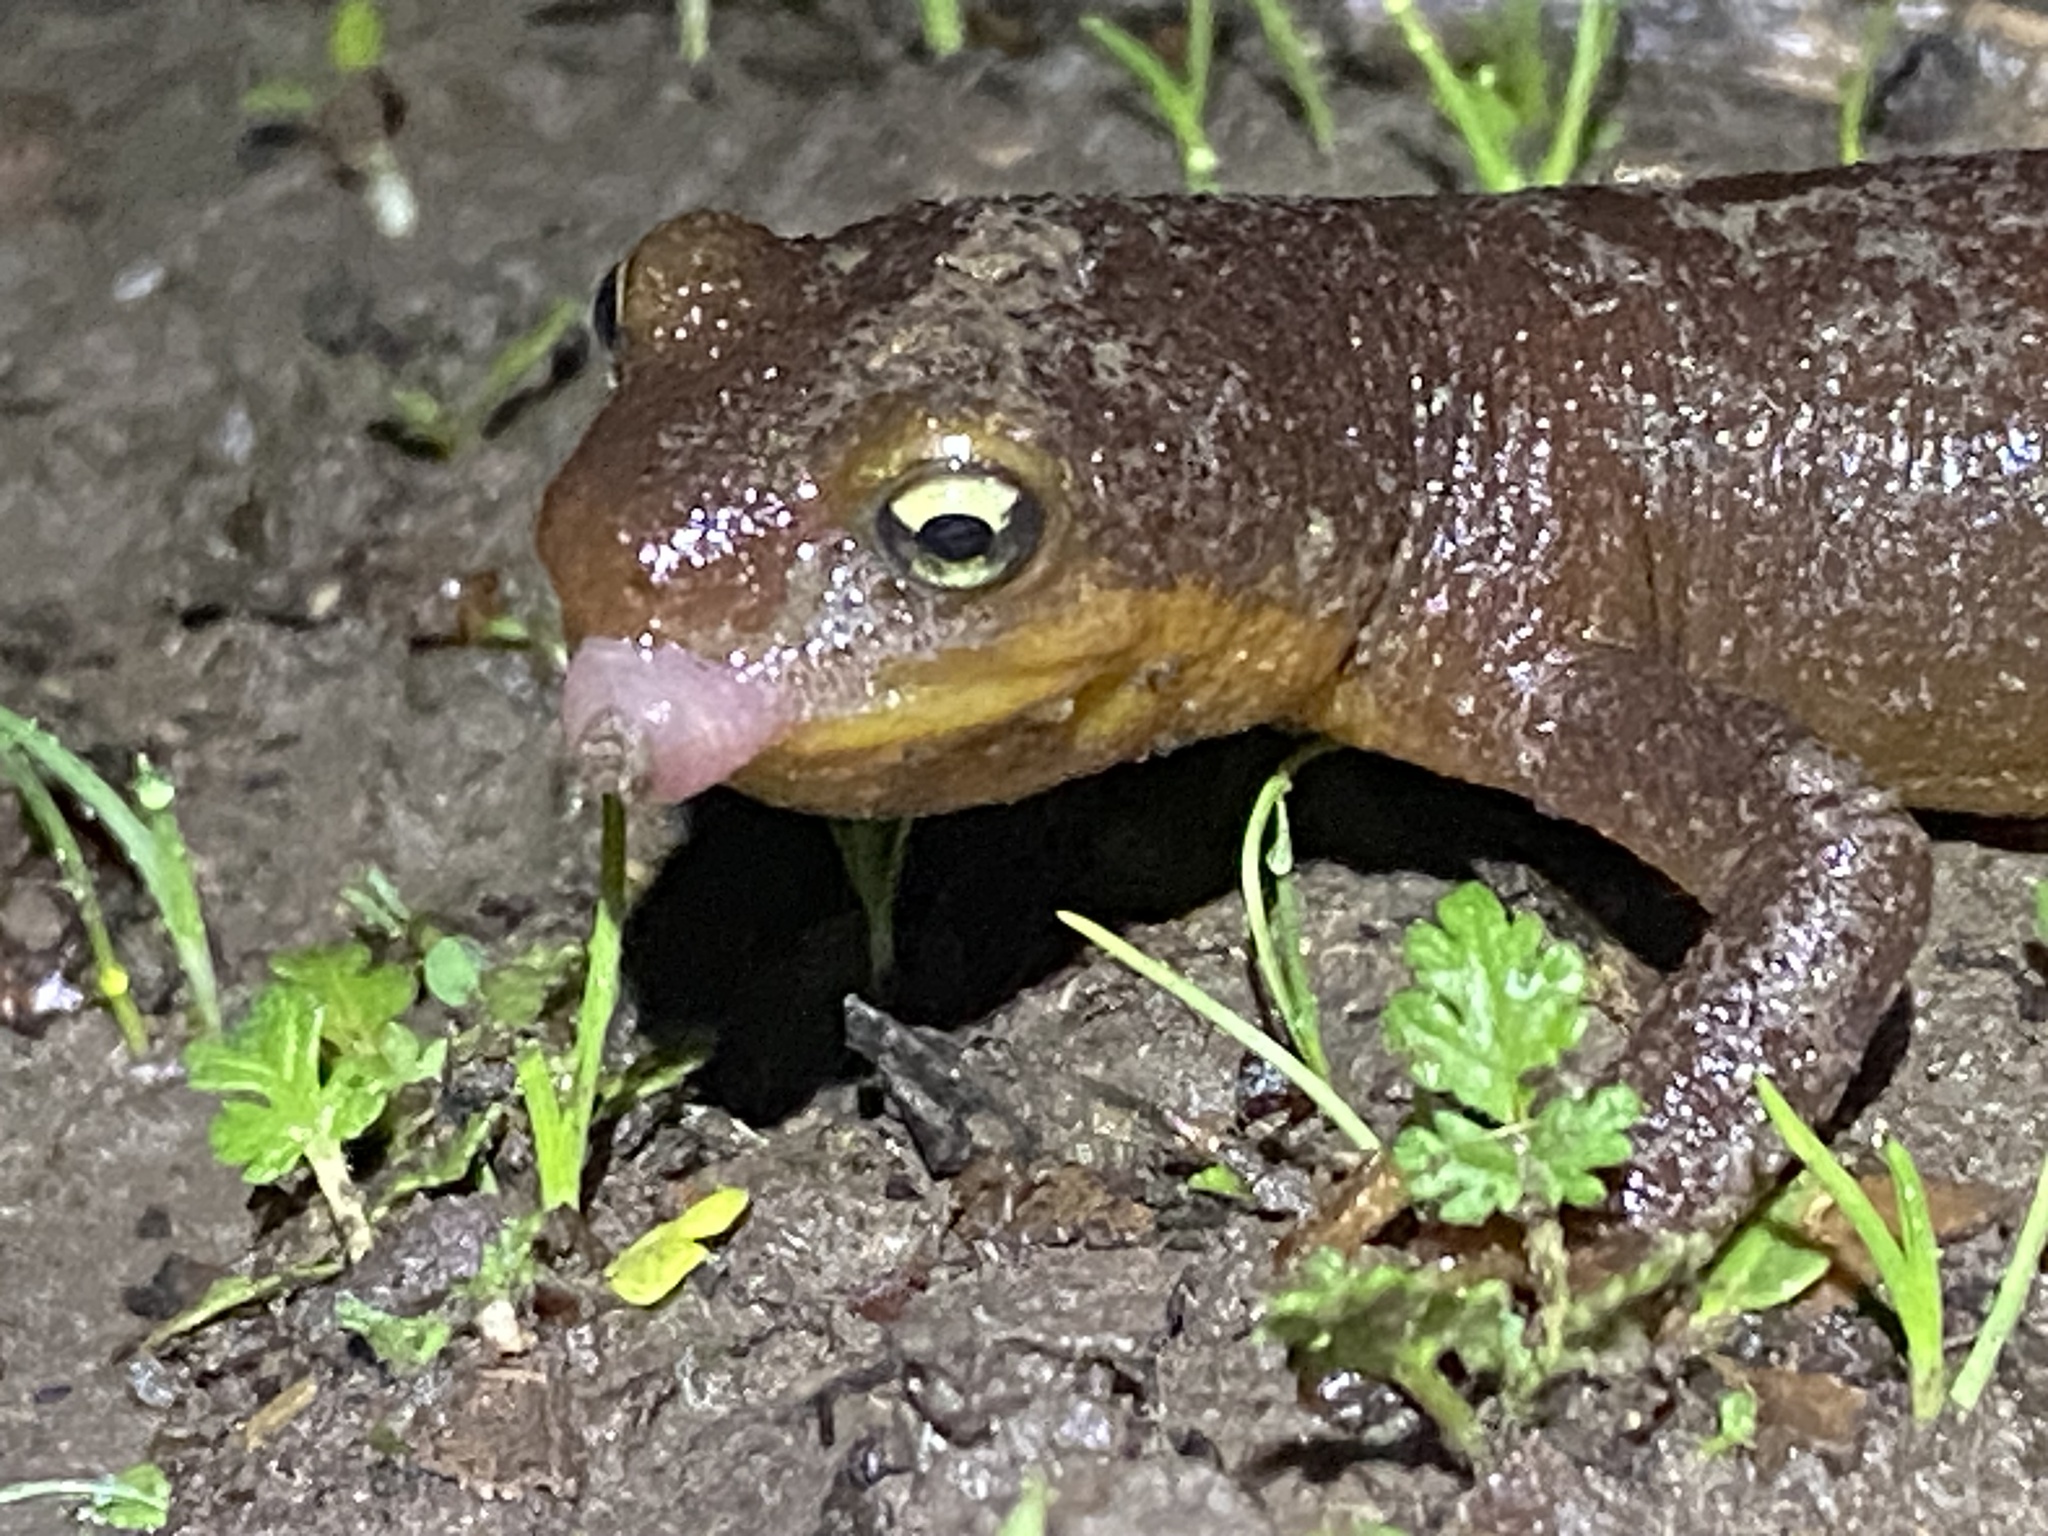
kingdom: Animalia
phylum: Chordata
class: Amphibia
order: Caudata
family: Salamandridae
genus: Taricha
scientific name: Taricha torosa
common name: California newt
